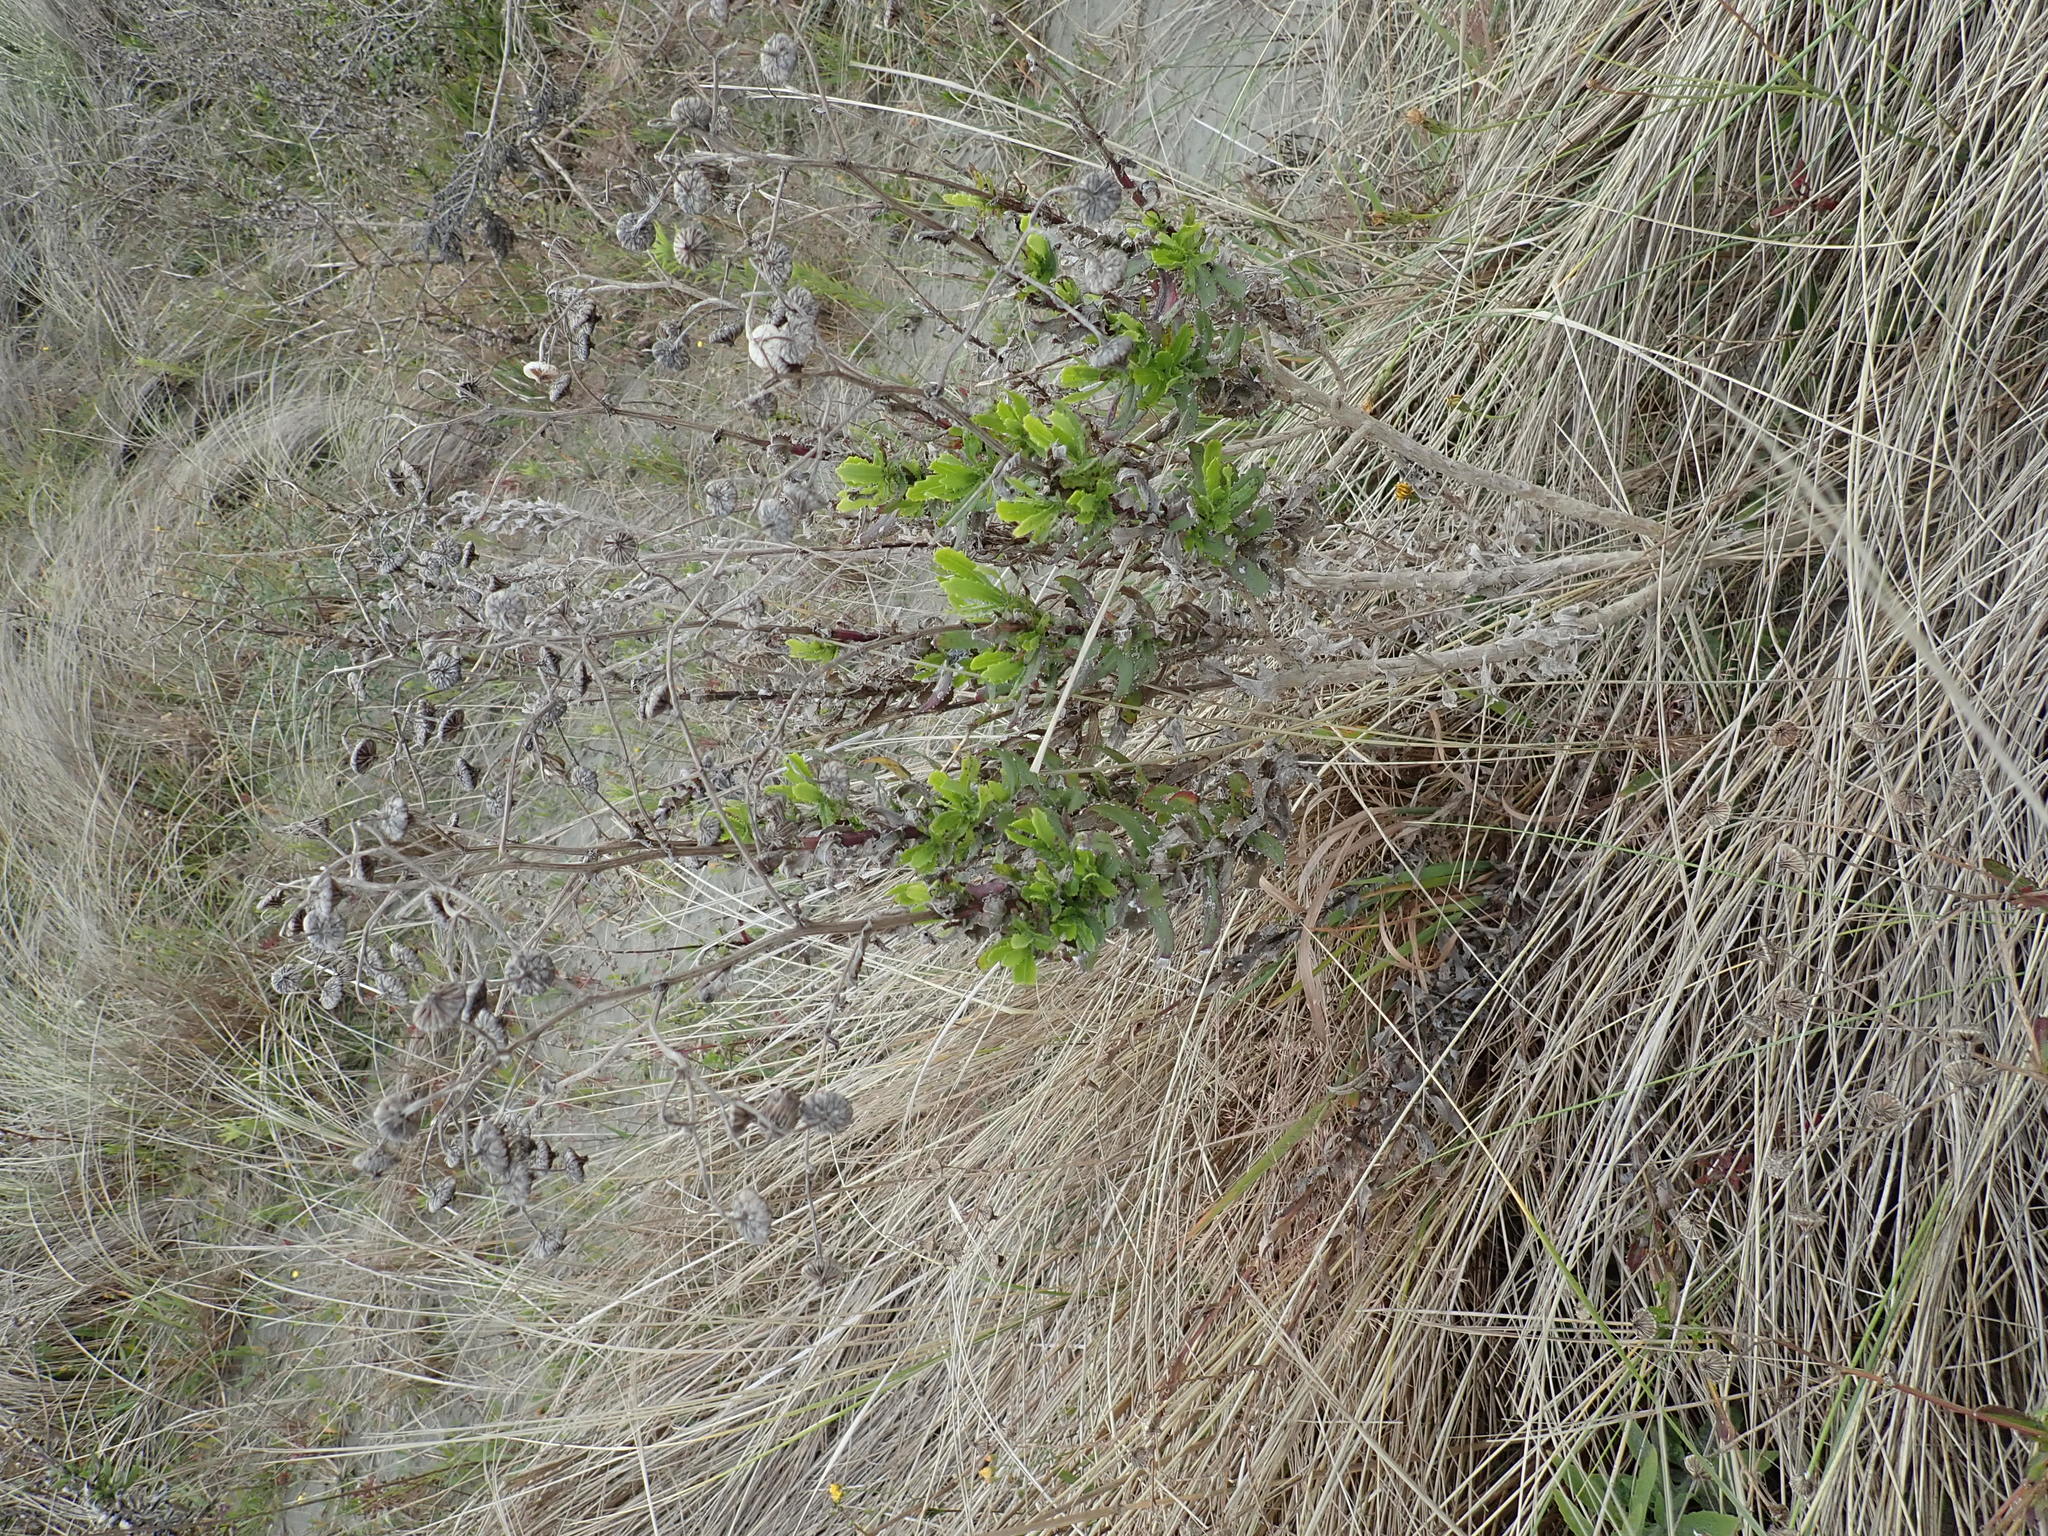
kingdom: Plantae
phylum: Tracheophyta
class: Magnoliopsida
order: Asterales
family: Asteraceae
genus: Senecio
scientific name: Senecio glastifolius
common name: Woad-leaved ragwort
